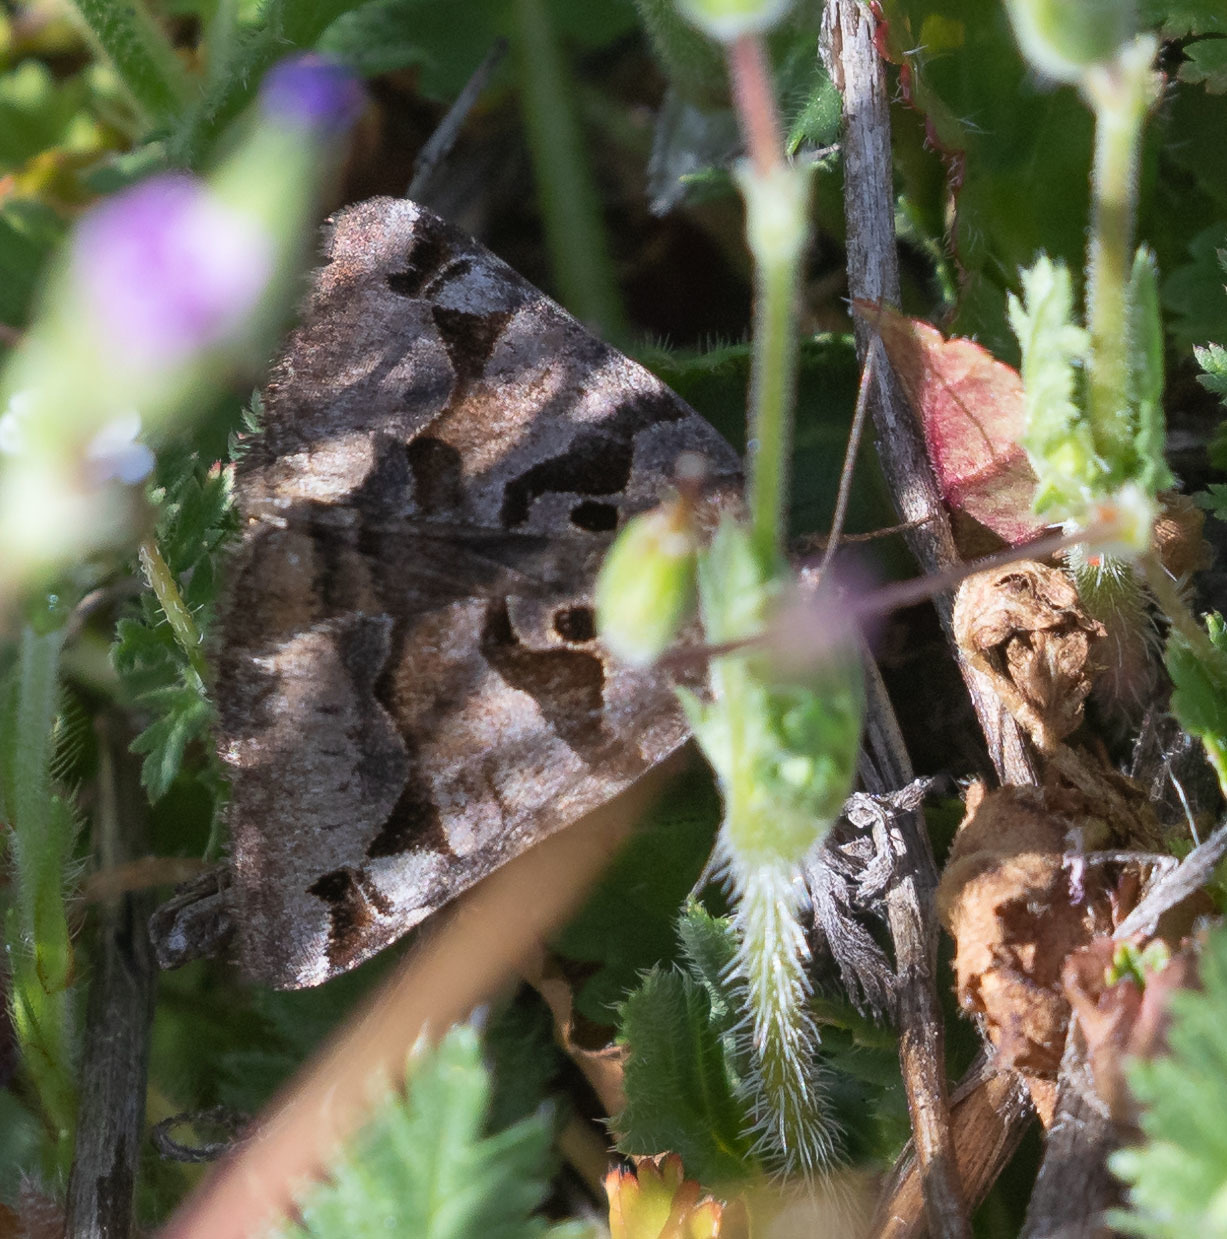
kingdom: Animalia
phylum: Arthropoda
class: Insecta
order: Lepidoptera
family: Erebidae
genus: Euclidia
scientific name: Euclidia ardita
